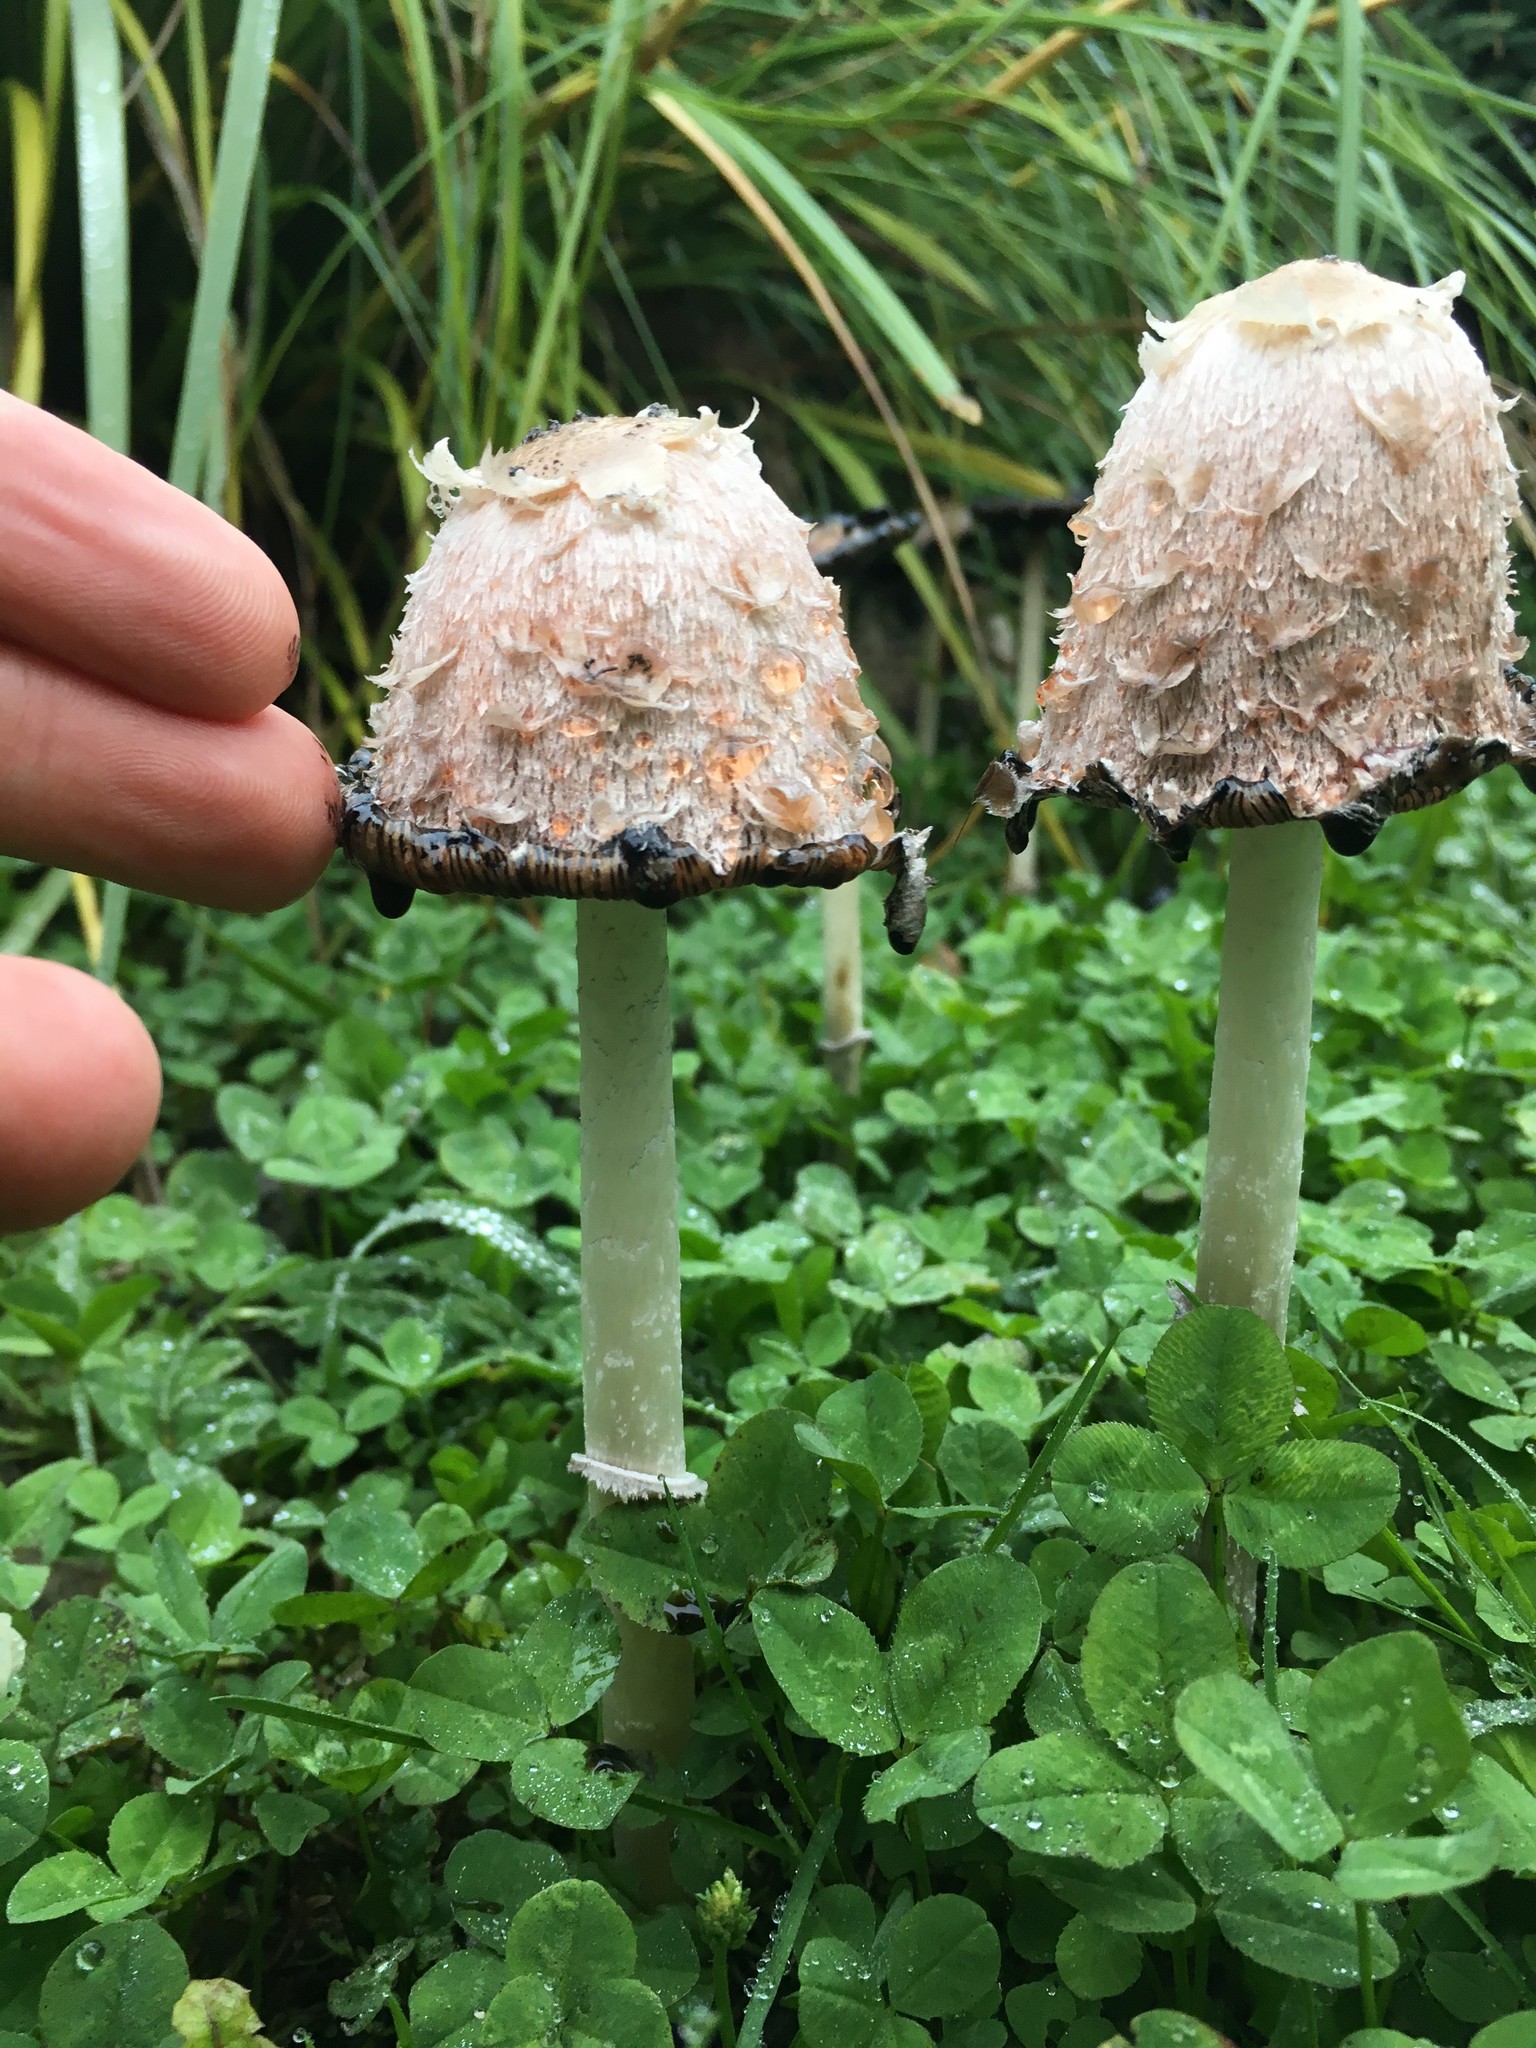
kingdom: Fungi
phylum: Basidiomycota
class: Agaricomycetes
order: Agaricales
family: Agaricaceae
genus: Coprinus
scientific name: Coprinus comatus
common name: Lawyer's wig
